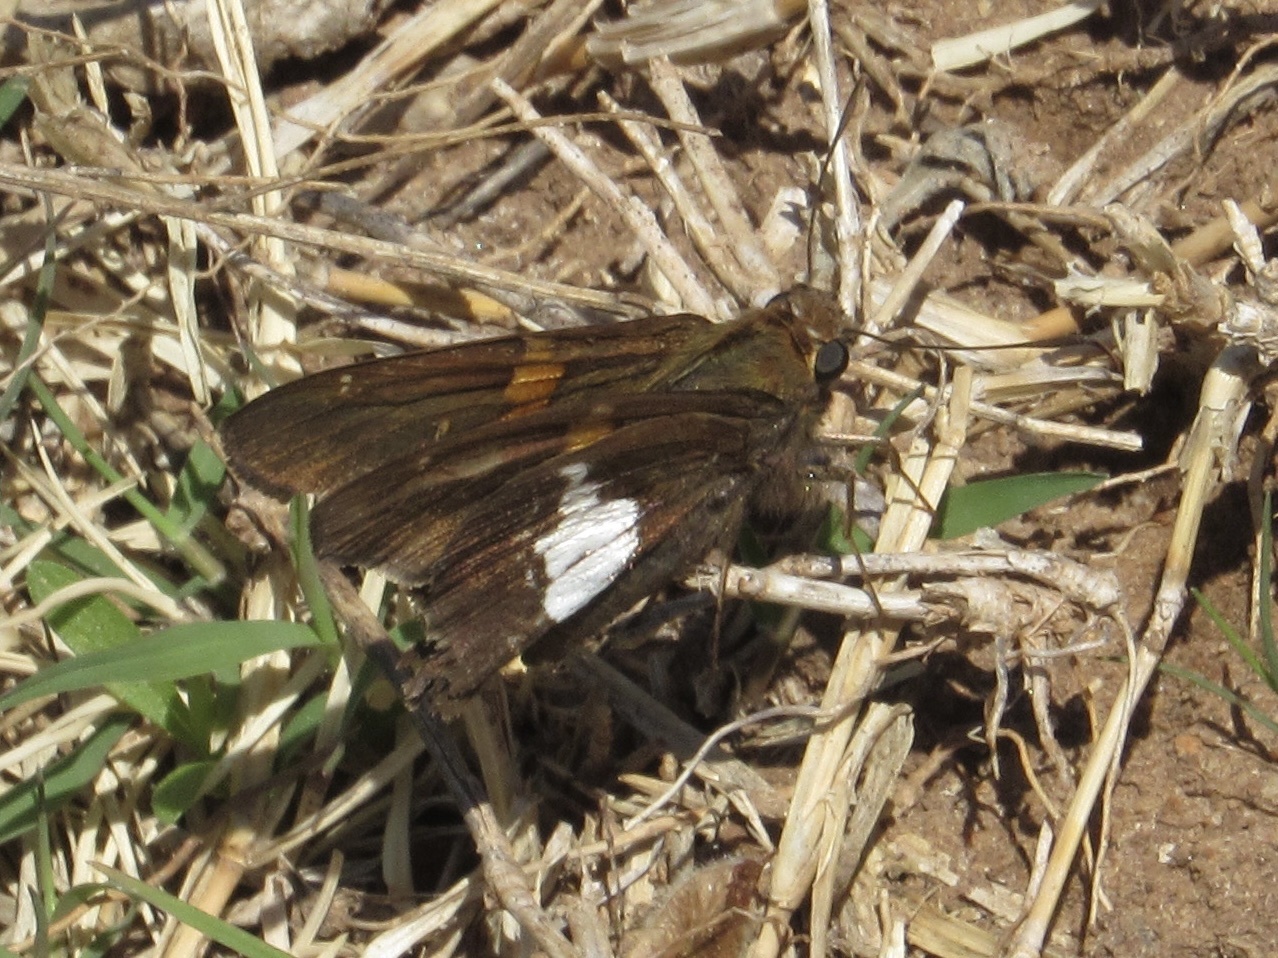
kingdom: Animalia
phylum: Arthropoda
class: Insecta
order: Lepidoptera
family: Hesperiidae
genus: Epargyreus
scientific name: Epargyreus clarus
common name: Silver-spotted skipper
